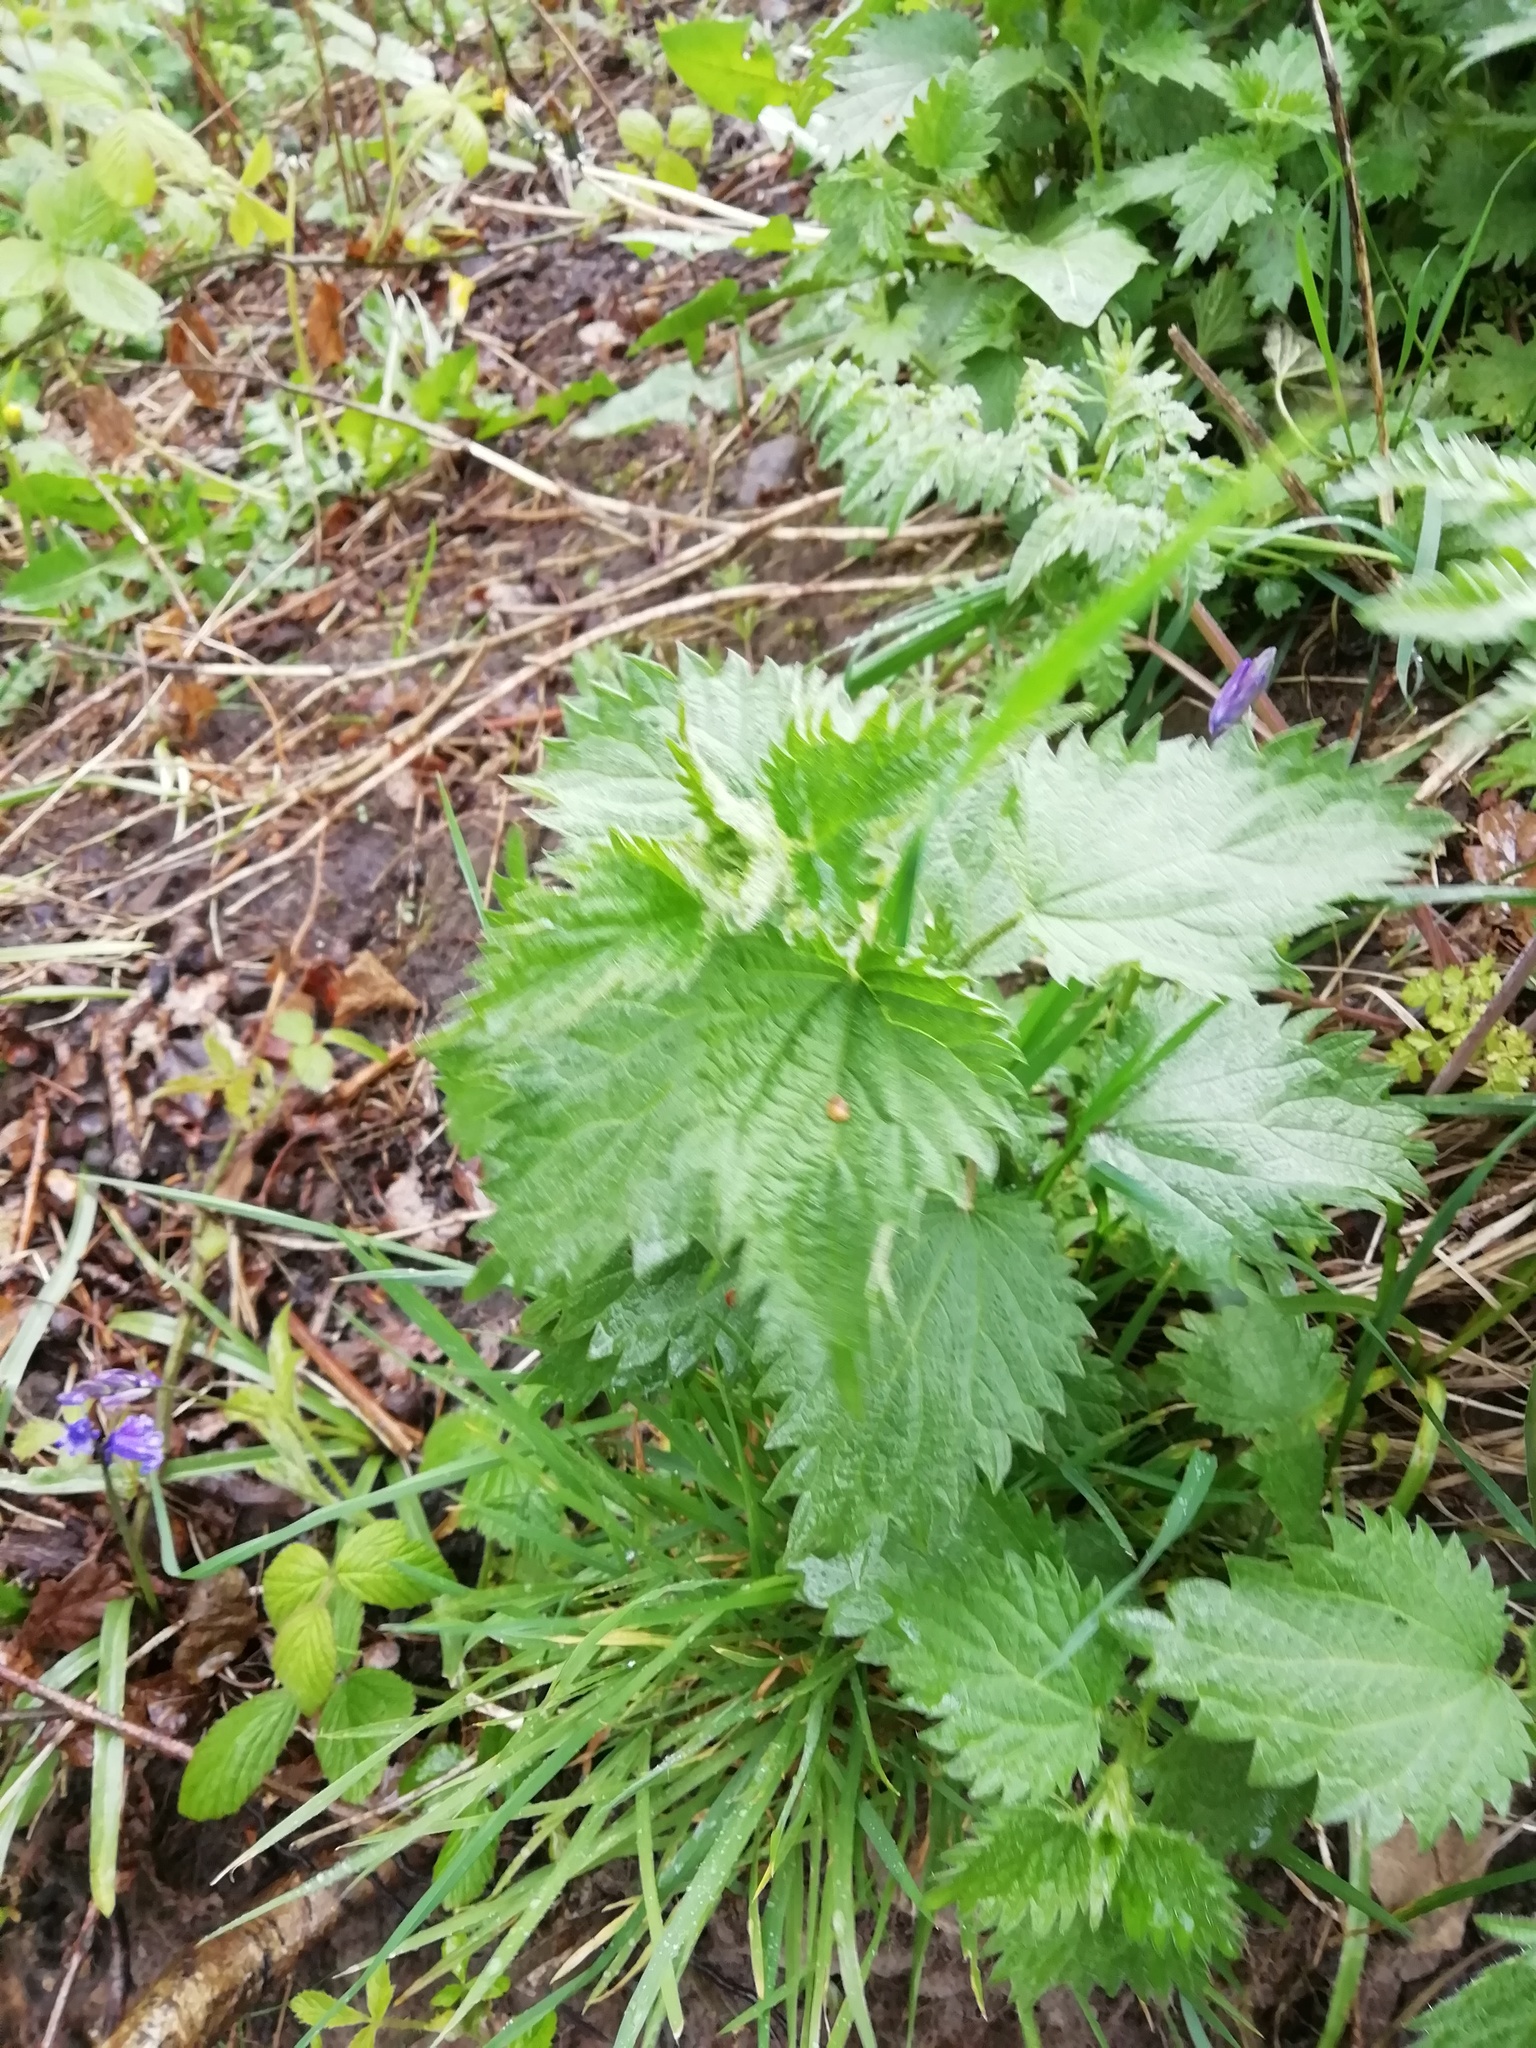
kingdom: Plantae
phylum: Tracheophyta
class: Magnoliopsida
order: Rosales
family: Urticaceae
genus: Urtica
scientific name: Urtica dioica
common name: Common nettle
